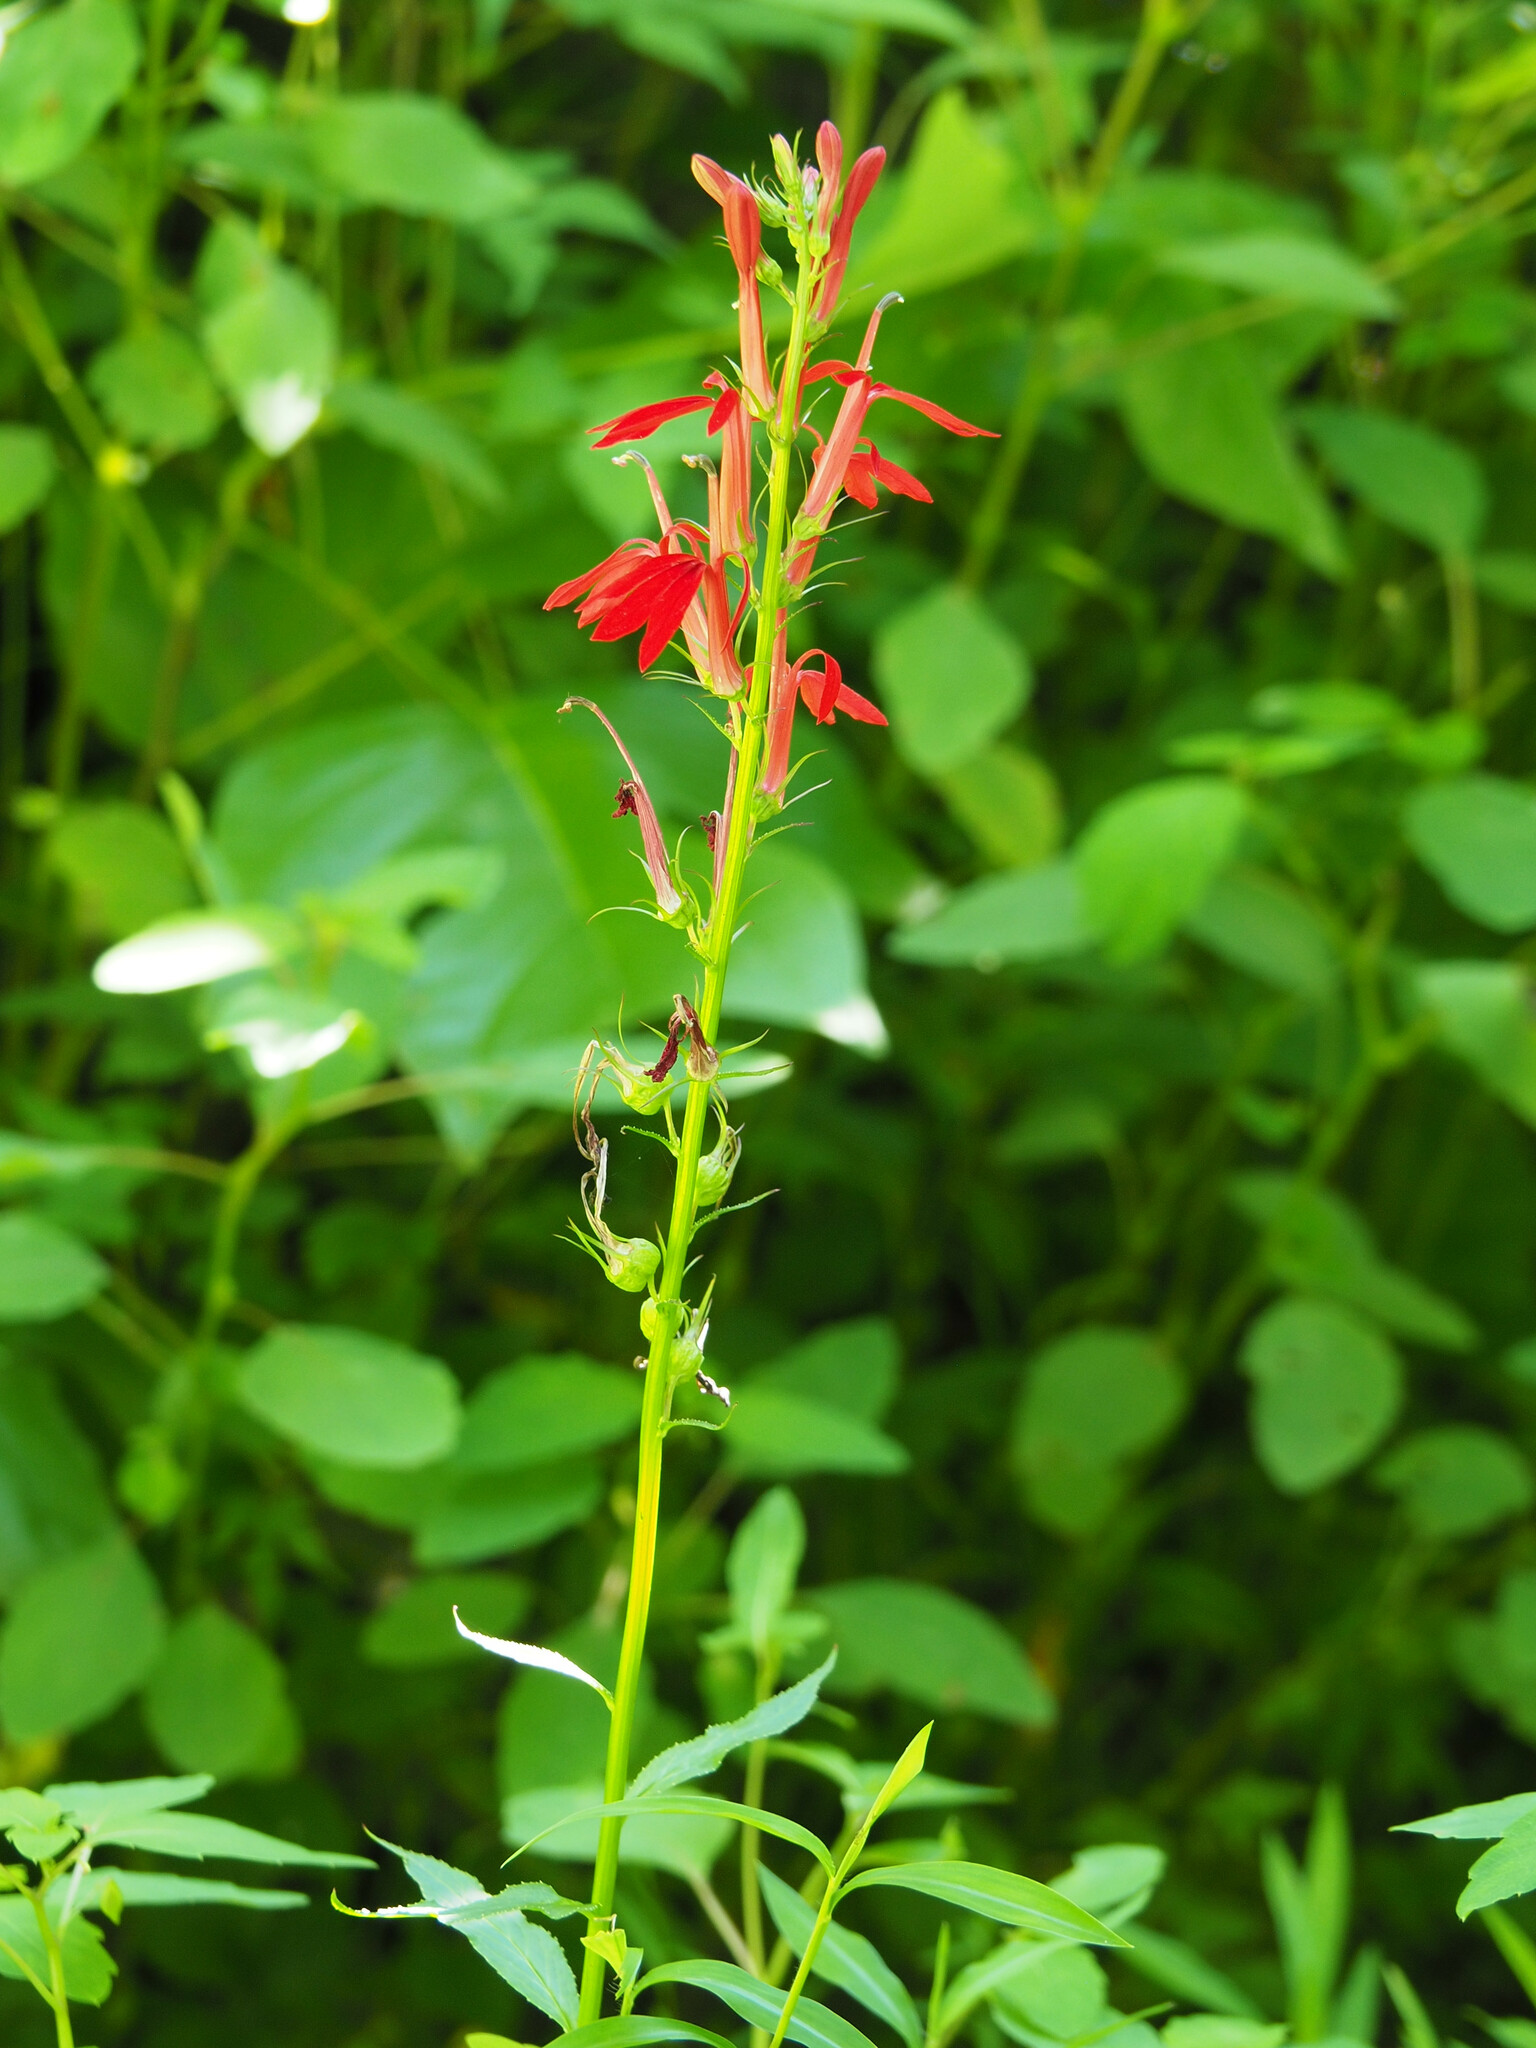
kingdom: Plantae
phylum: Tracheophyta
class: Magnoliopsida
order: Asterales
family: Campanulaceae
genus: Lobelia
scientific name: Lobelia cardinalis
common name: Cardinal flower
